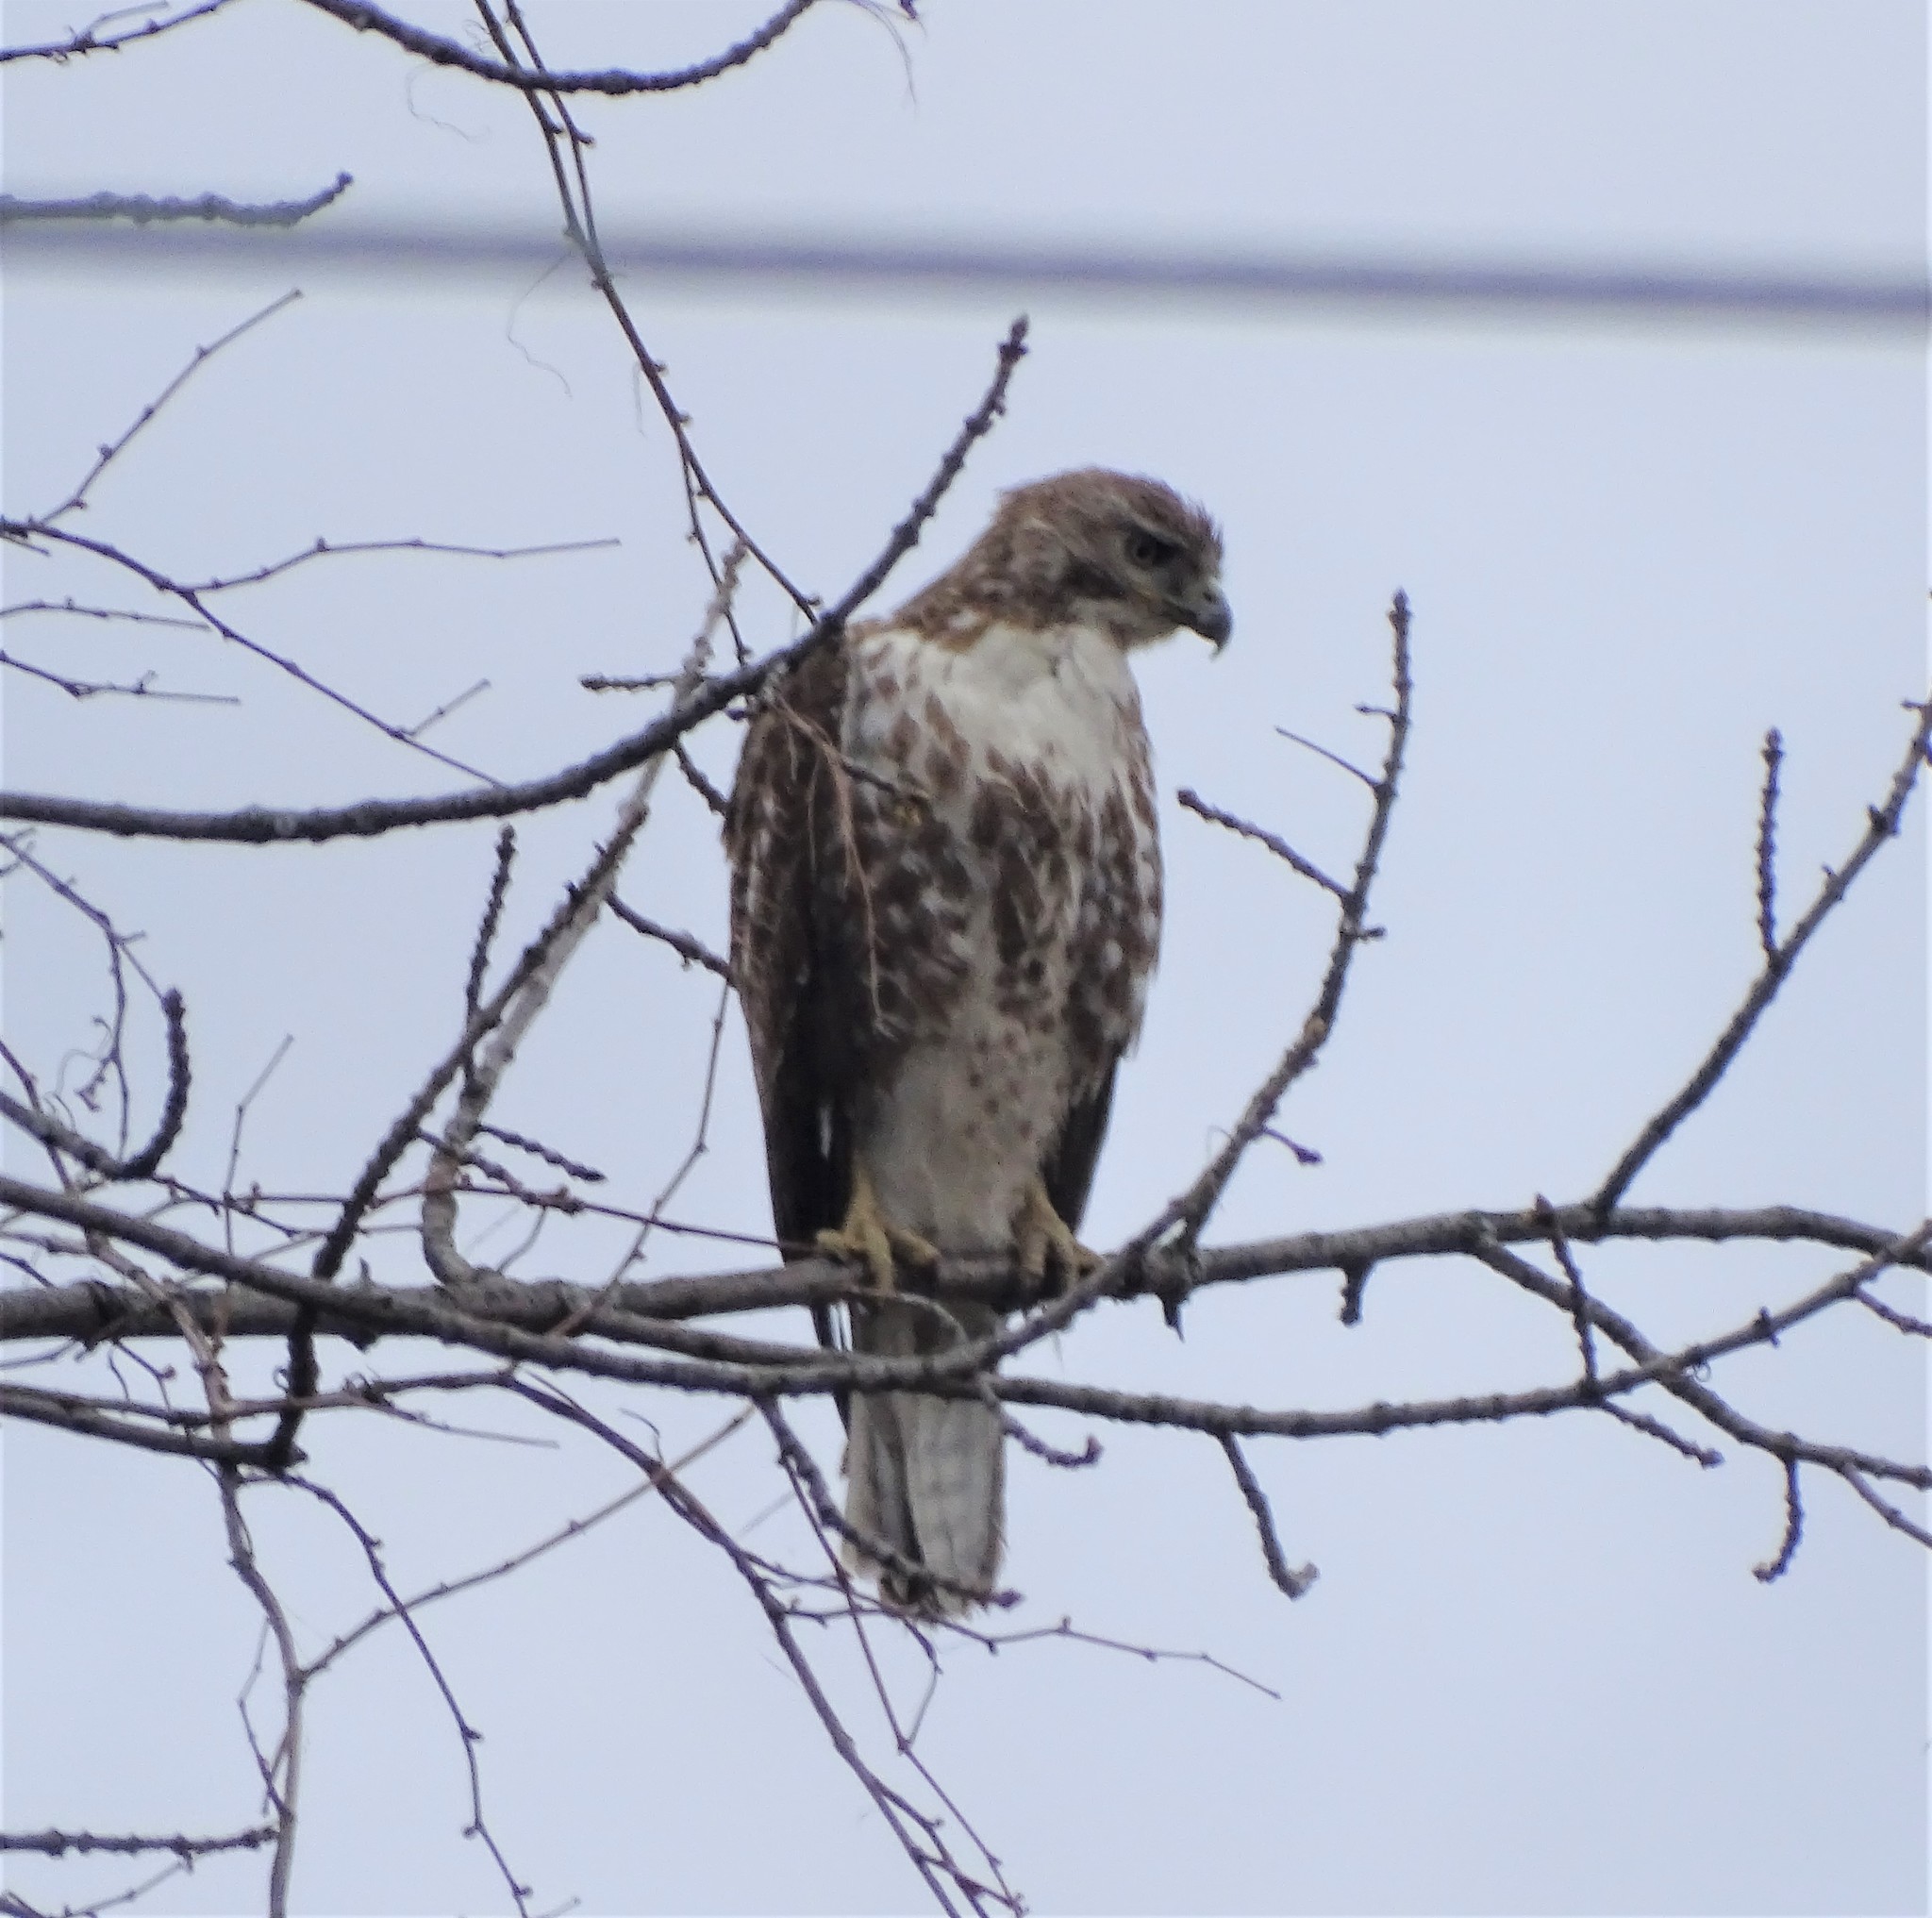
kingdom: Animalia
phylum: Chordata
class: Aves
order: Accipitriformes
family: Accipitridae
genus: Buteo
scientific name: Buteo jamaicensis
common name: Red-tailed hawk
